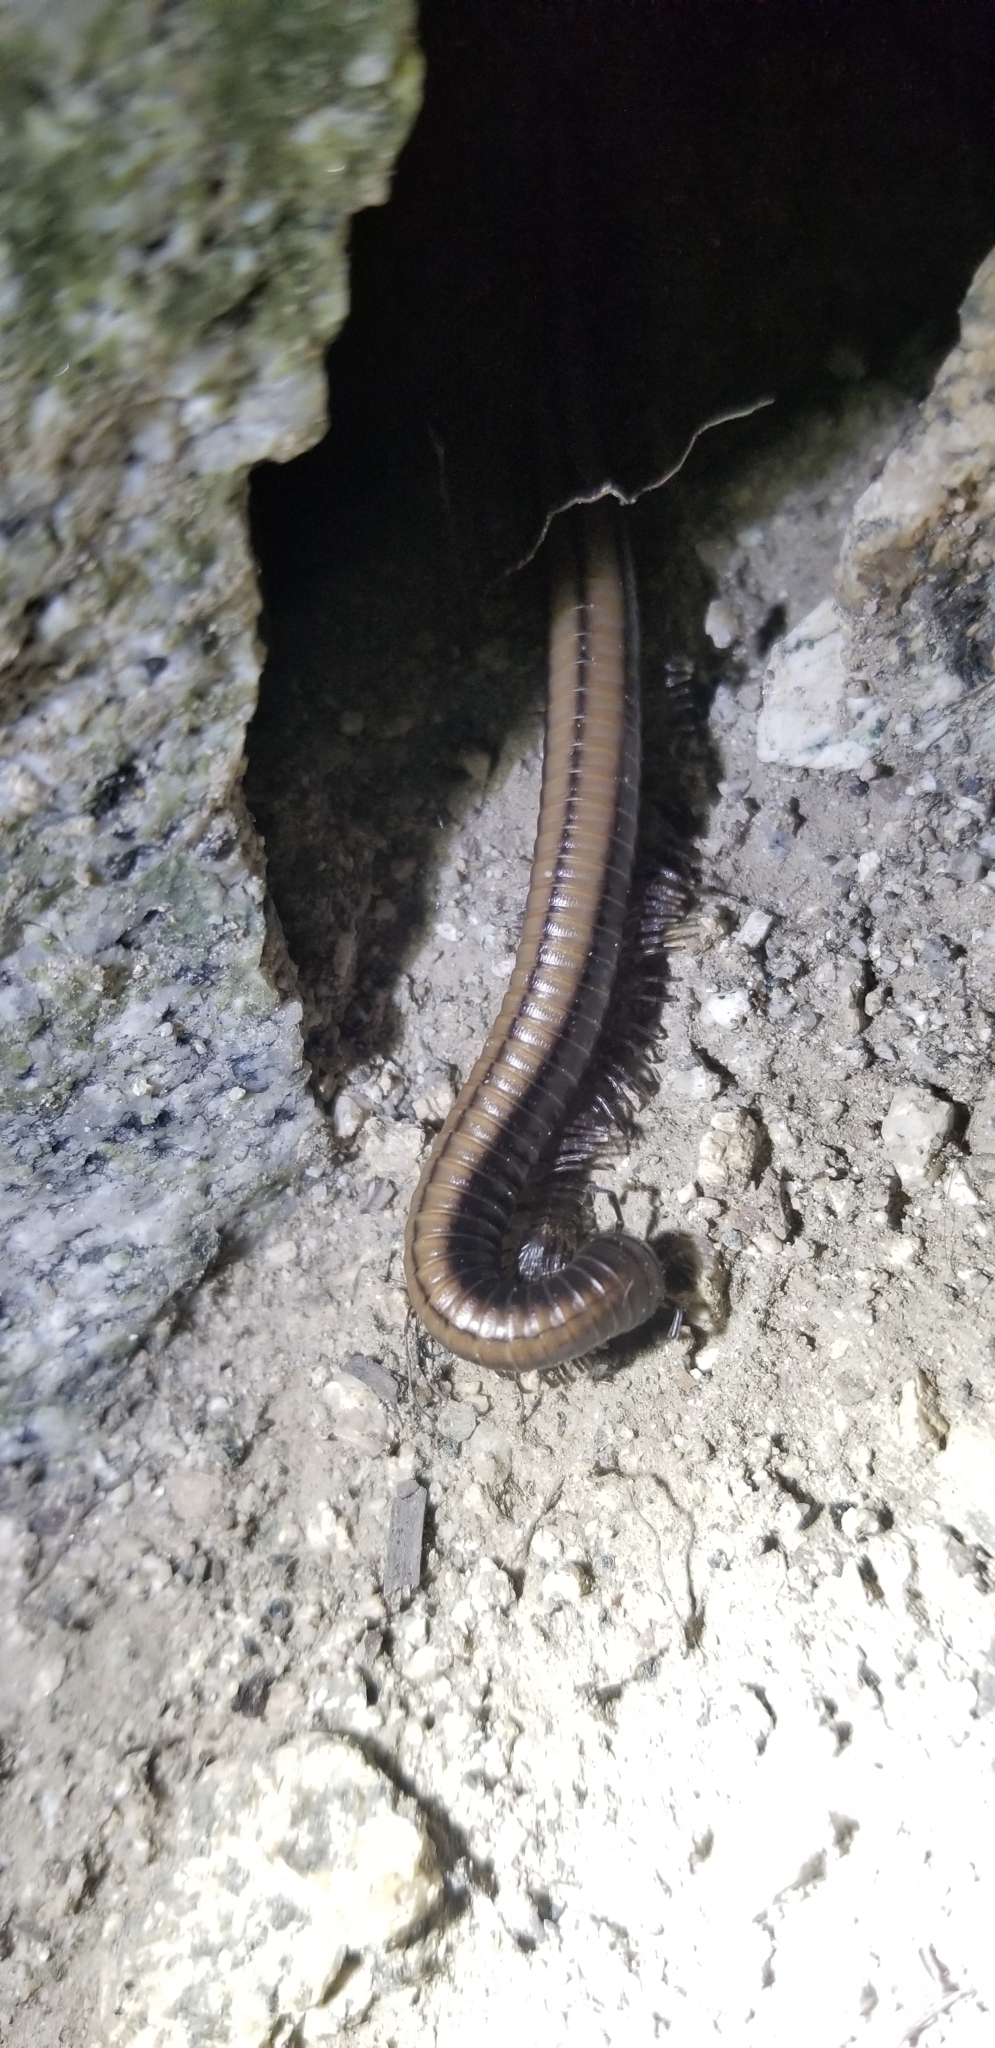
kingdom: Animalia
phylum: Arthropoda
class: Diplopoda
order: Julida
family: Paeromopodidae
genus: Californiulus
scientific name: Californiulus yosemitensis
